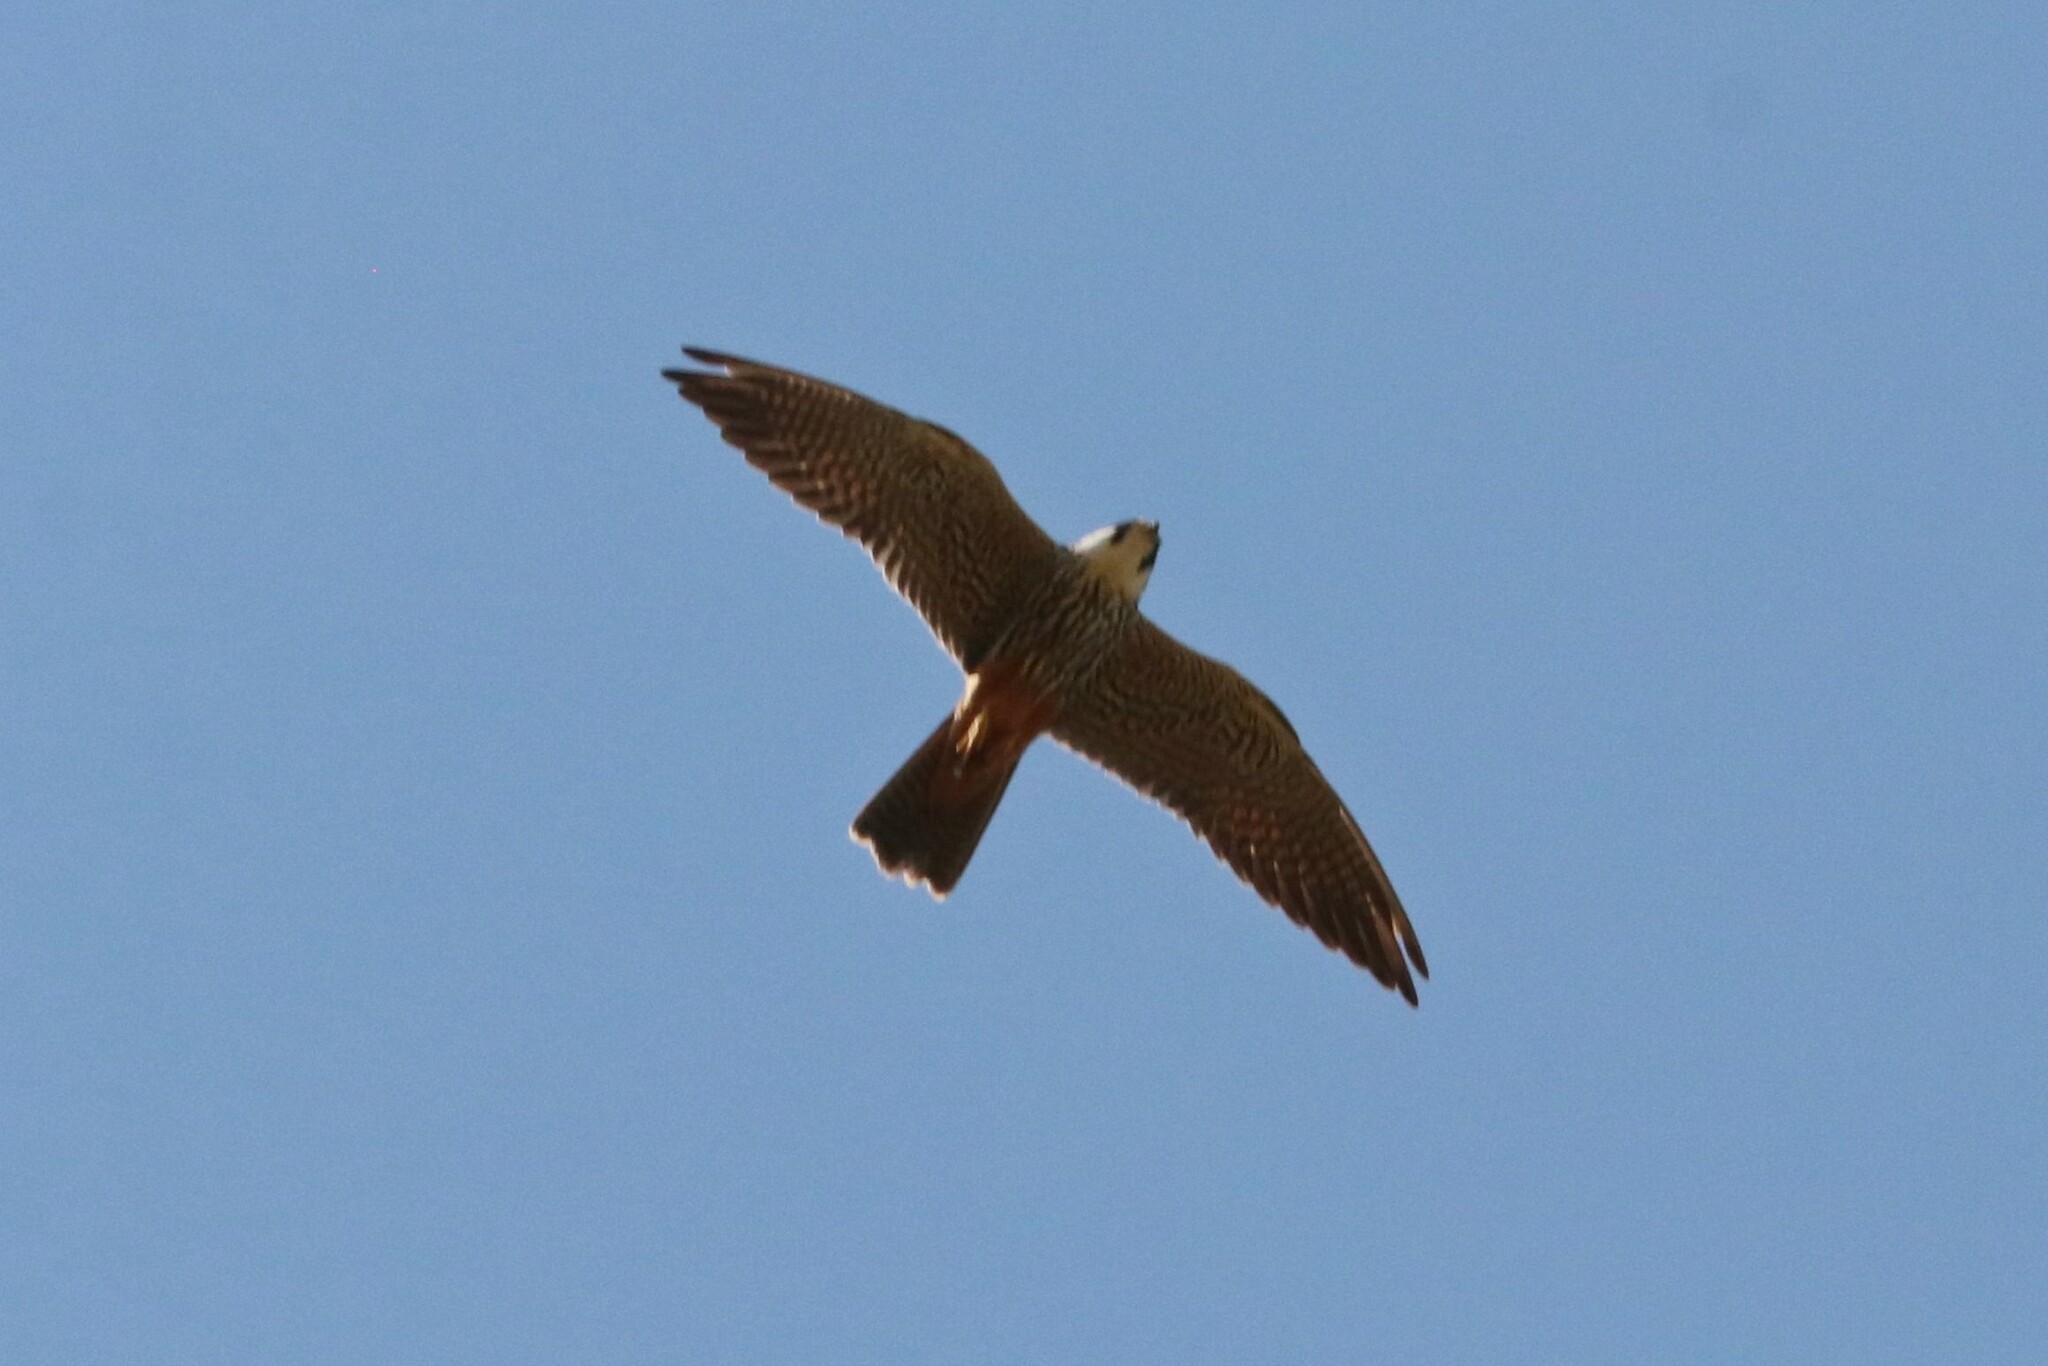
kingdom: Animalia
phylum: Chordata
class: Aves
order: Falconiformes
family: Falconidae
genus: Falco
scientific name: Falco subbuteo
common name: Eurasian hobby
